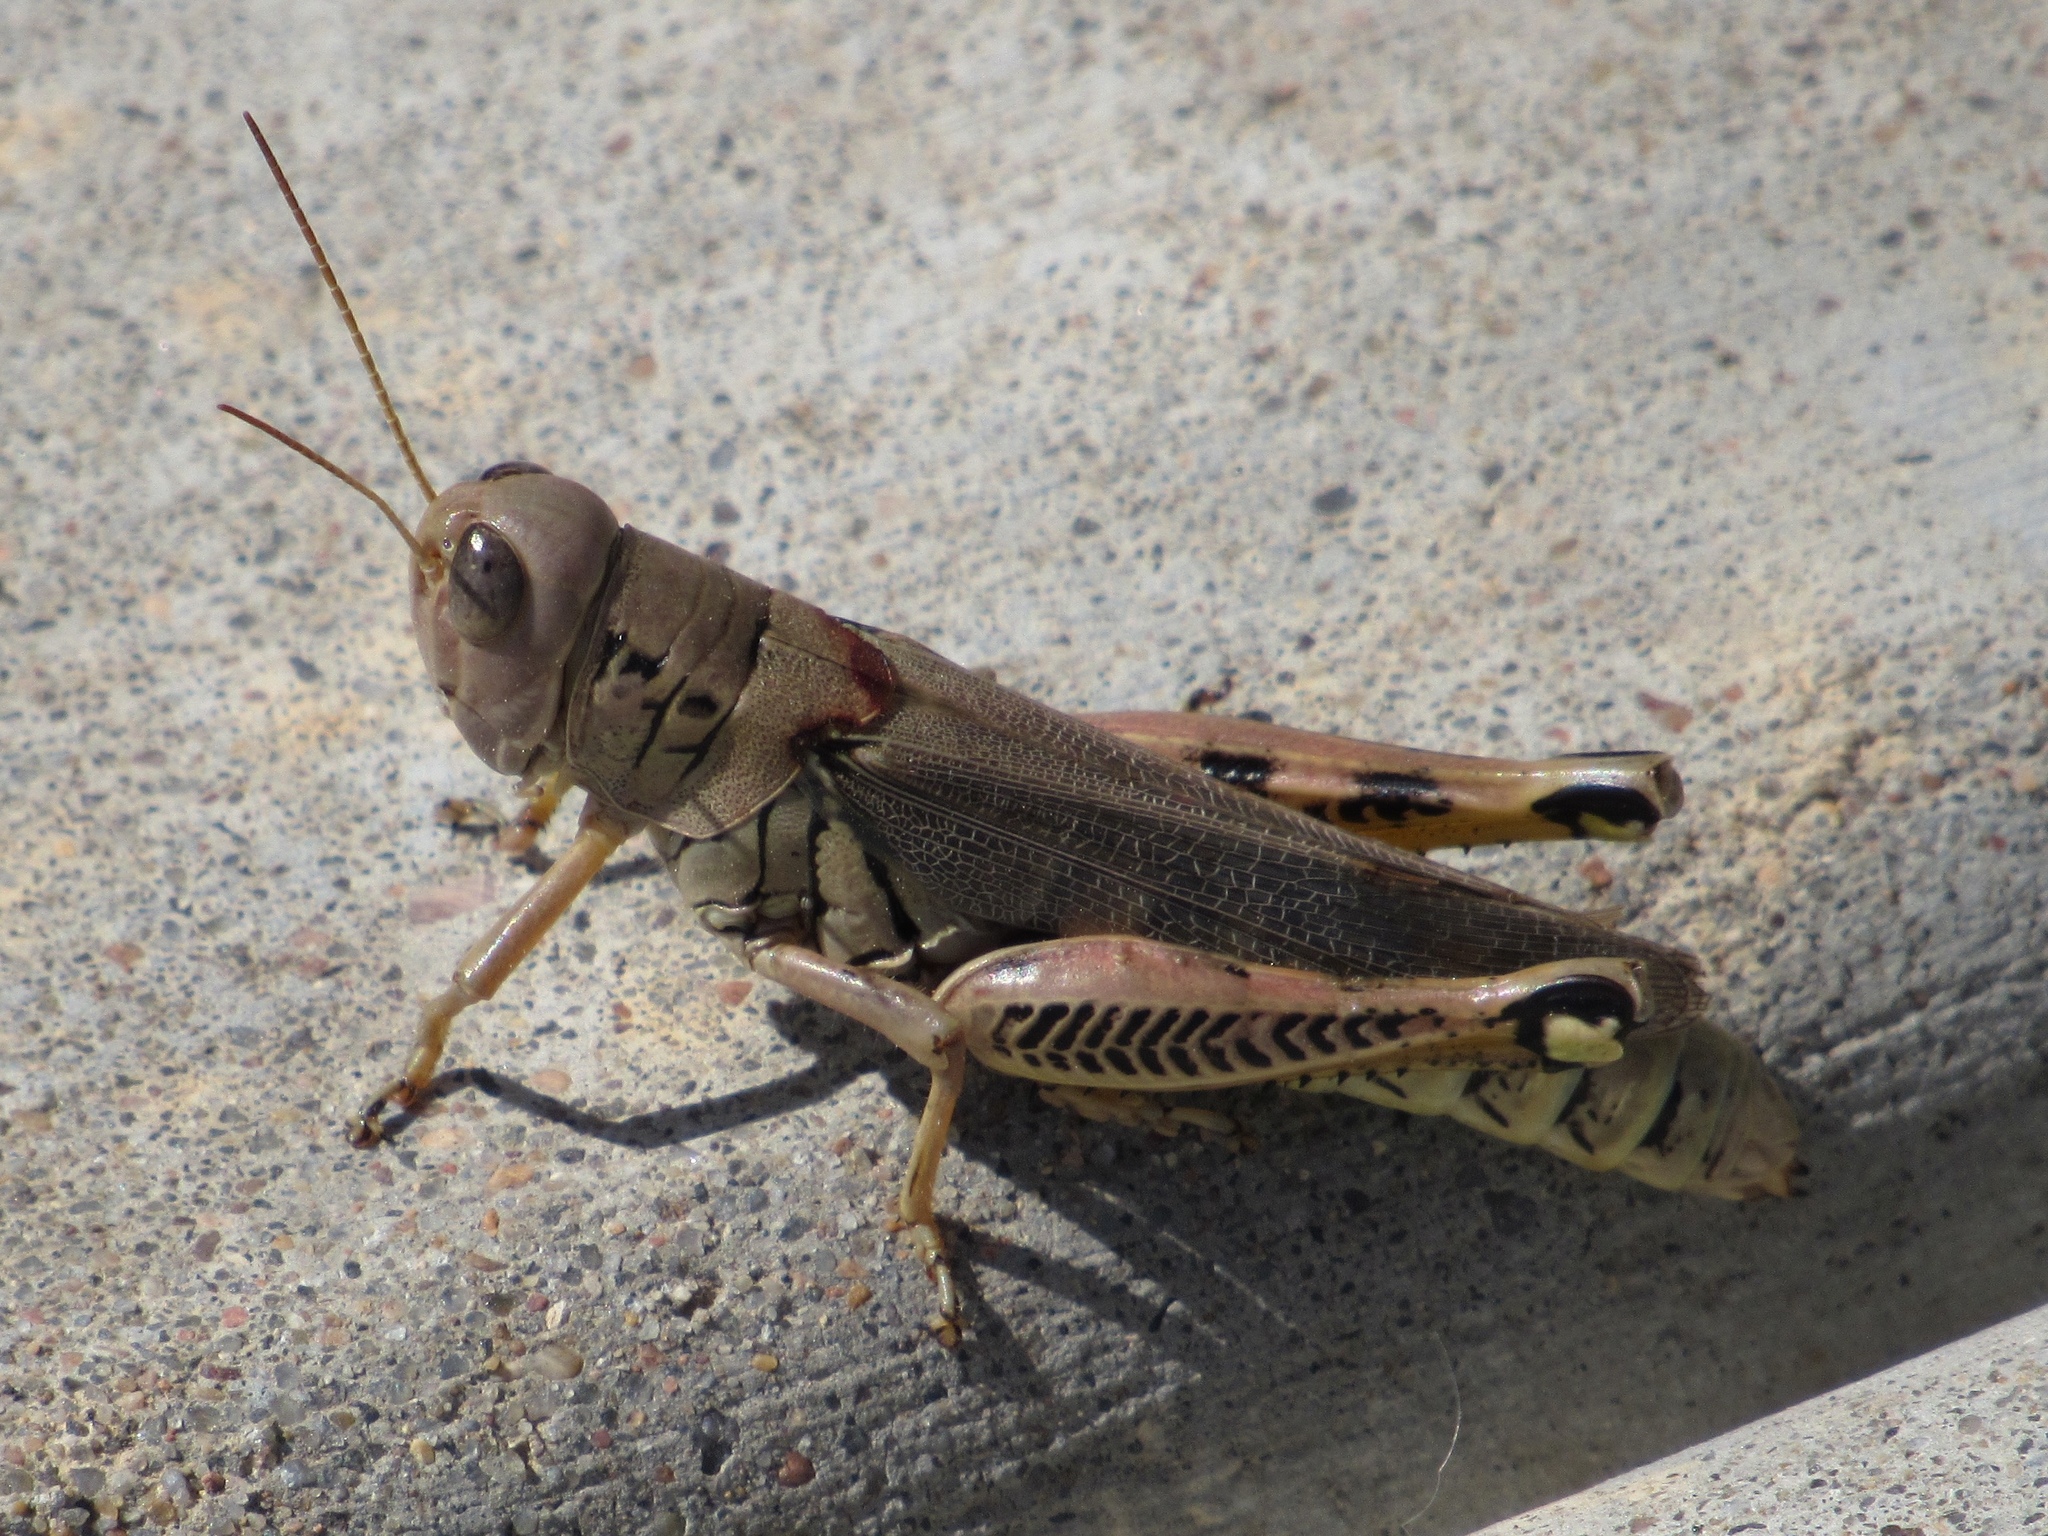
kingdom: Animalia
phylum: Arthropoda
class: Insecta
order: Orthoptera
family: Acrididae
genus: Melanoplus
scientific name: Melanoplus differentialis
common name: Differential grasshopper
